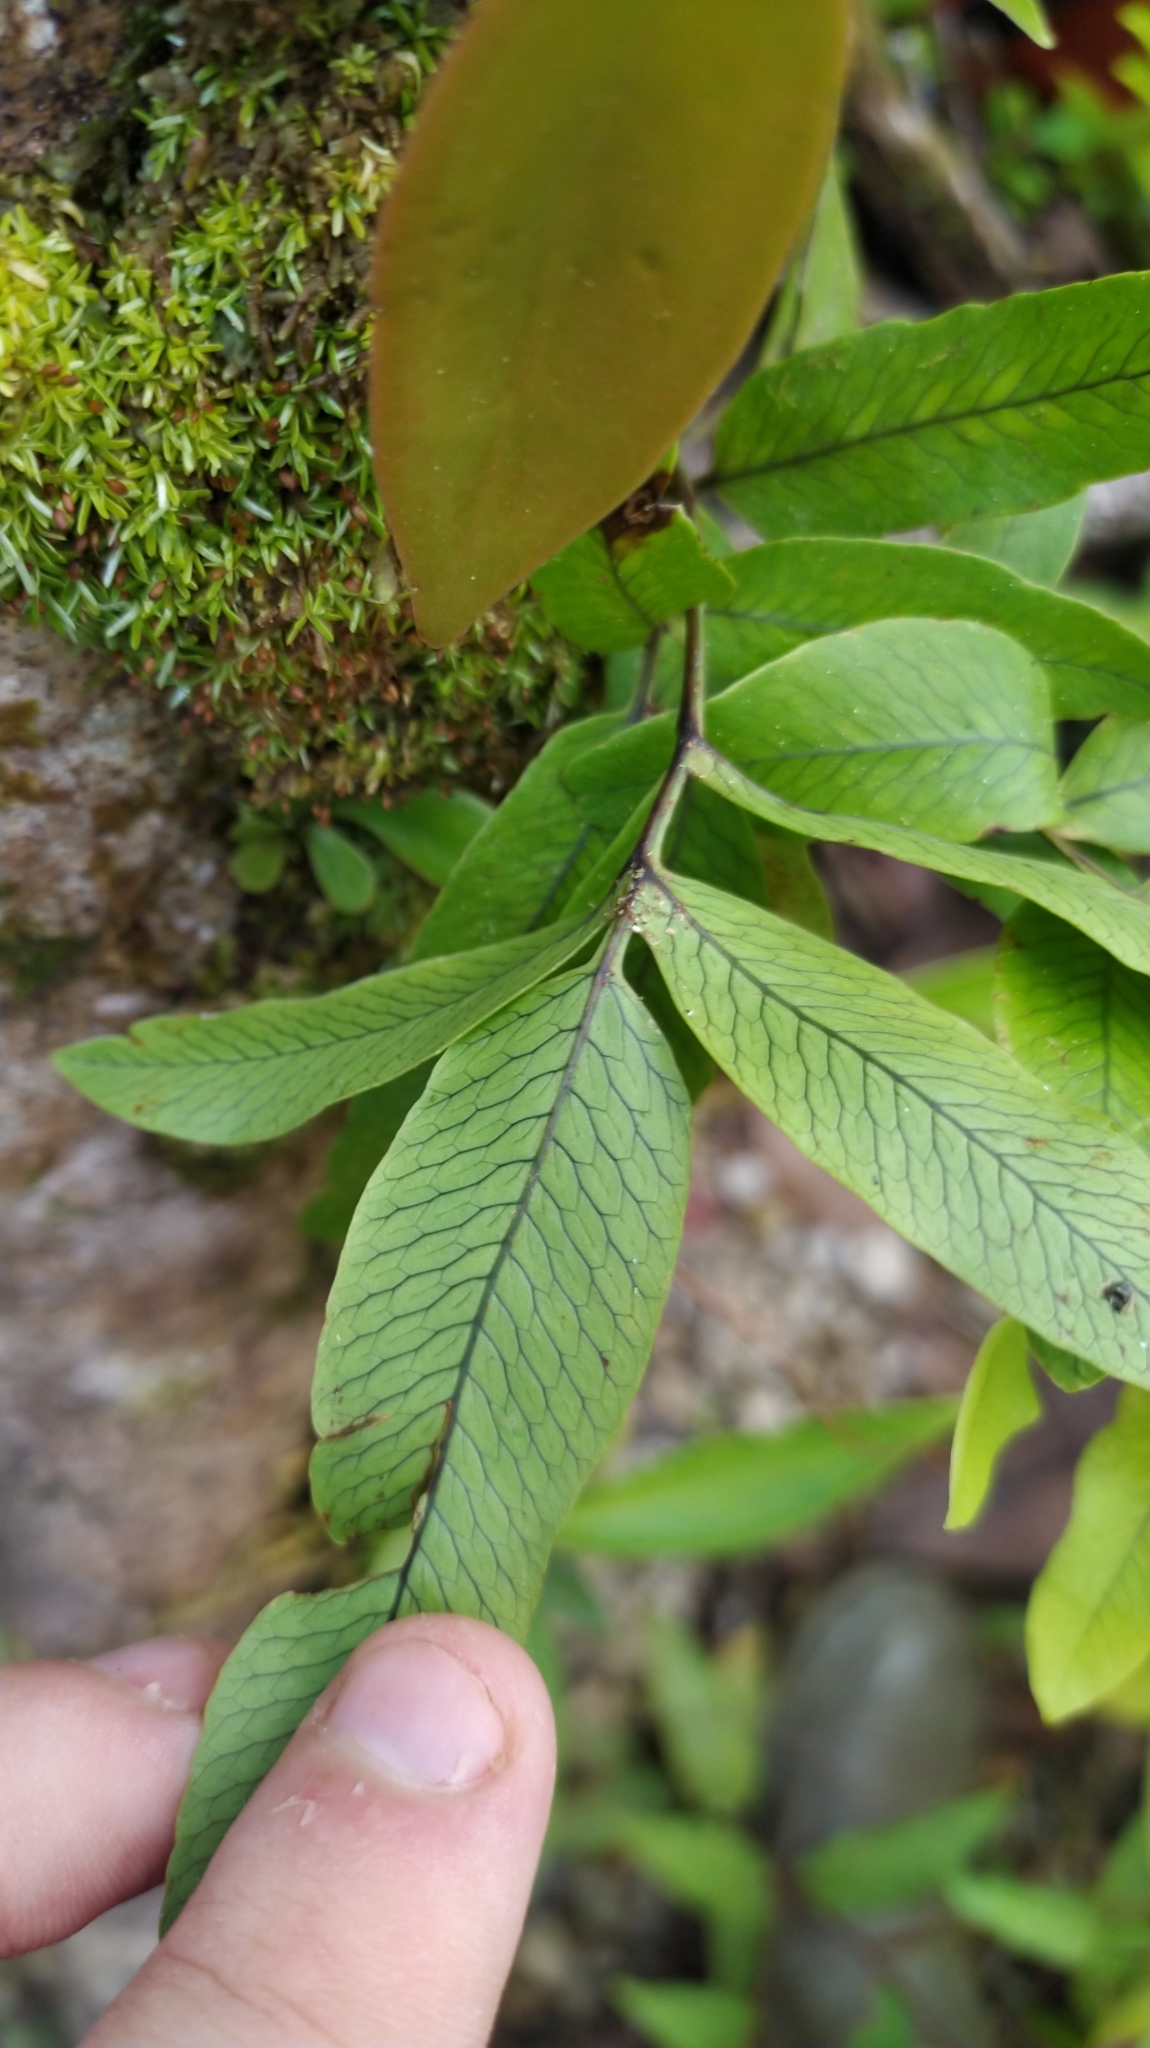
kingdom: Plantae
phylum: Tracheophyta
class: Polypodiopsida
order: Polypodiales
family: Polypodiaceae
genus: Serpocaulon
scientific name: Serpocaulon
